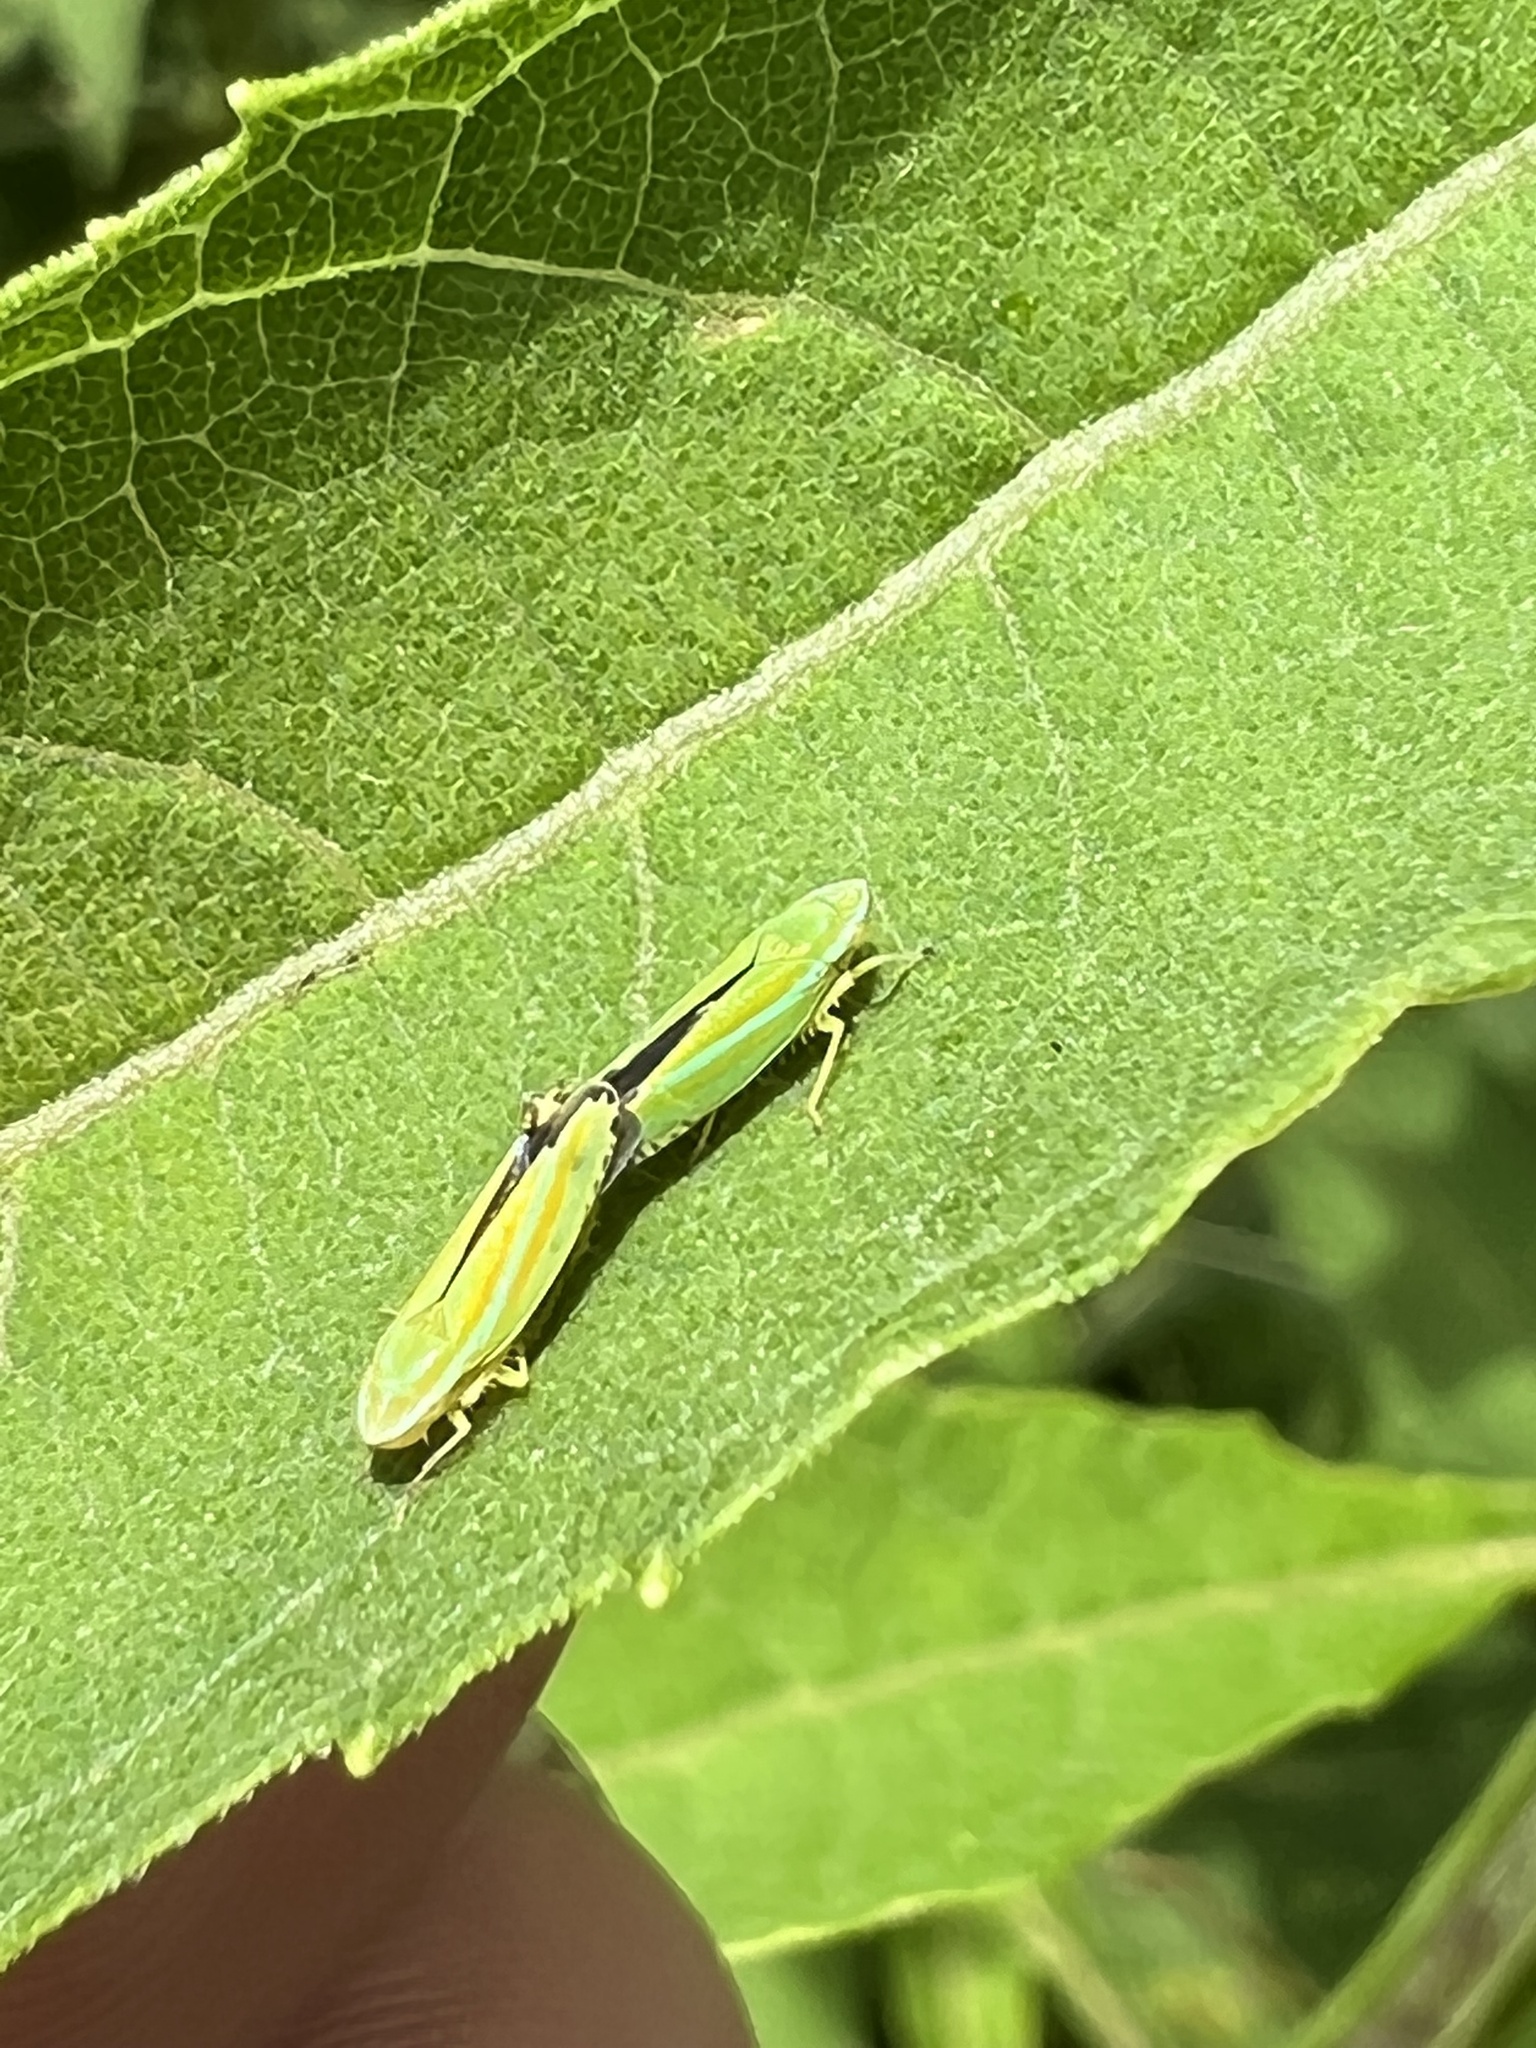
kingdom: Animalia
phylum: Arthropoda
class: Insecta
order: Hemiptera
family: Cicadellidae
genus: Graphocephala
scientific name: Graphocephala versuta
